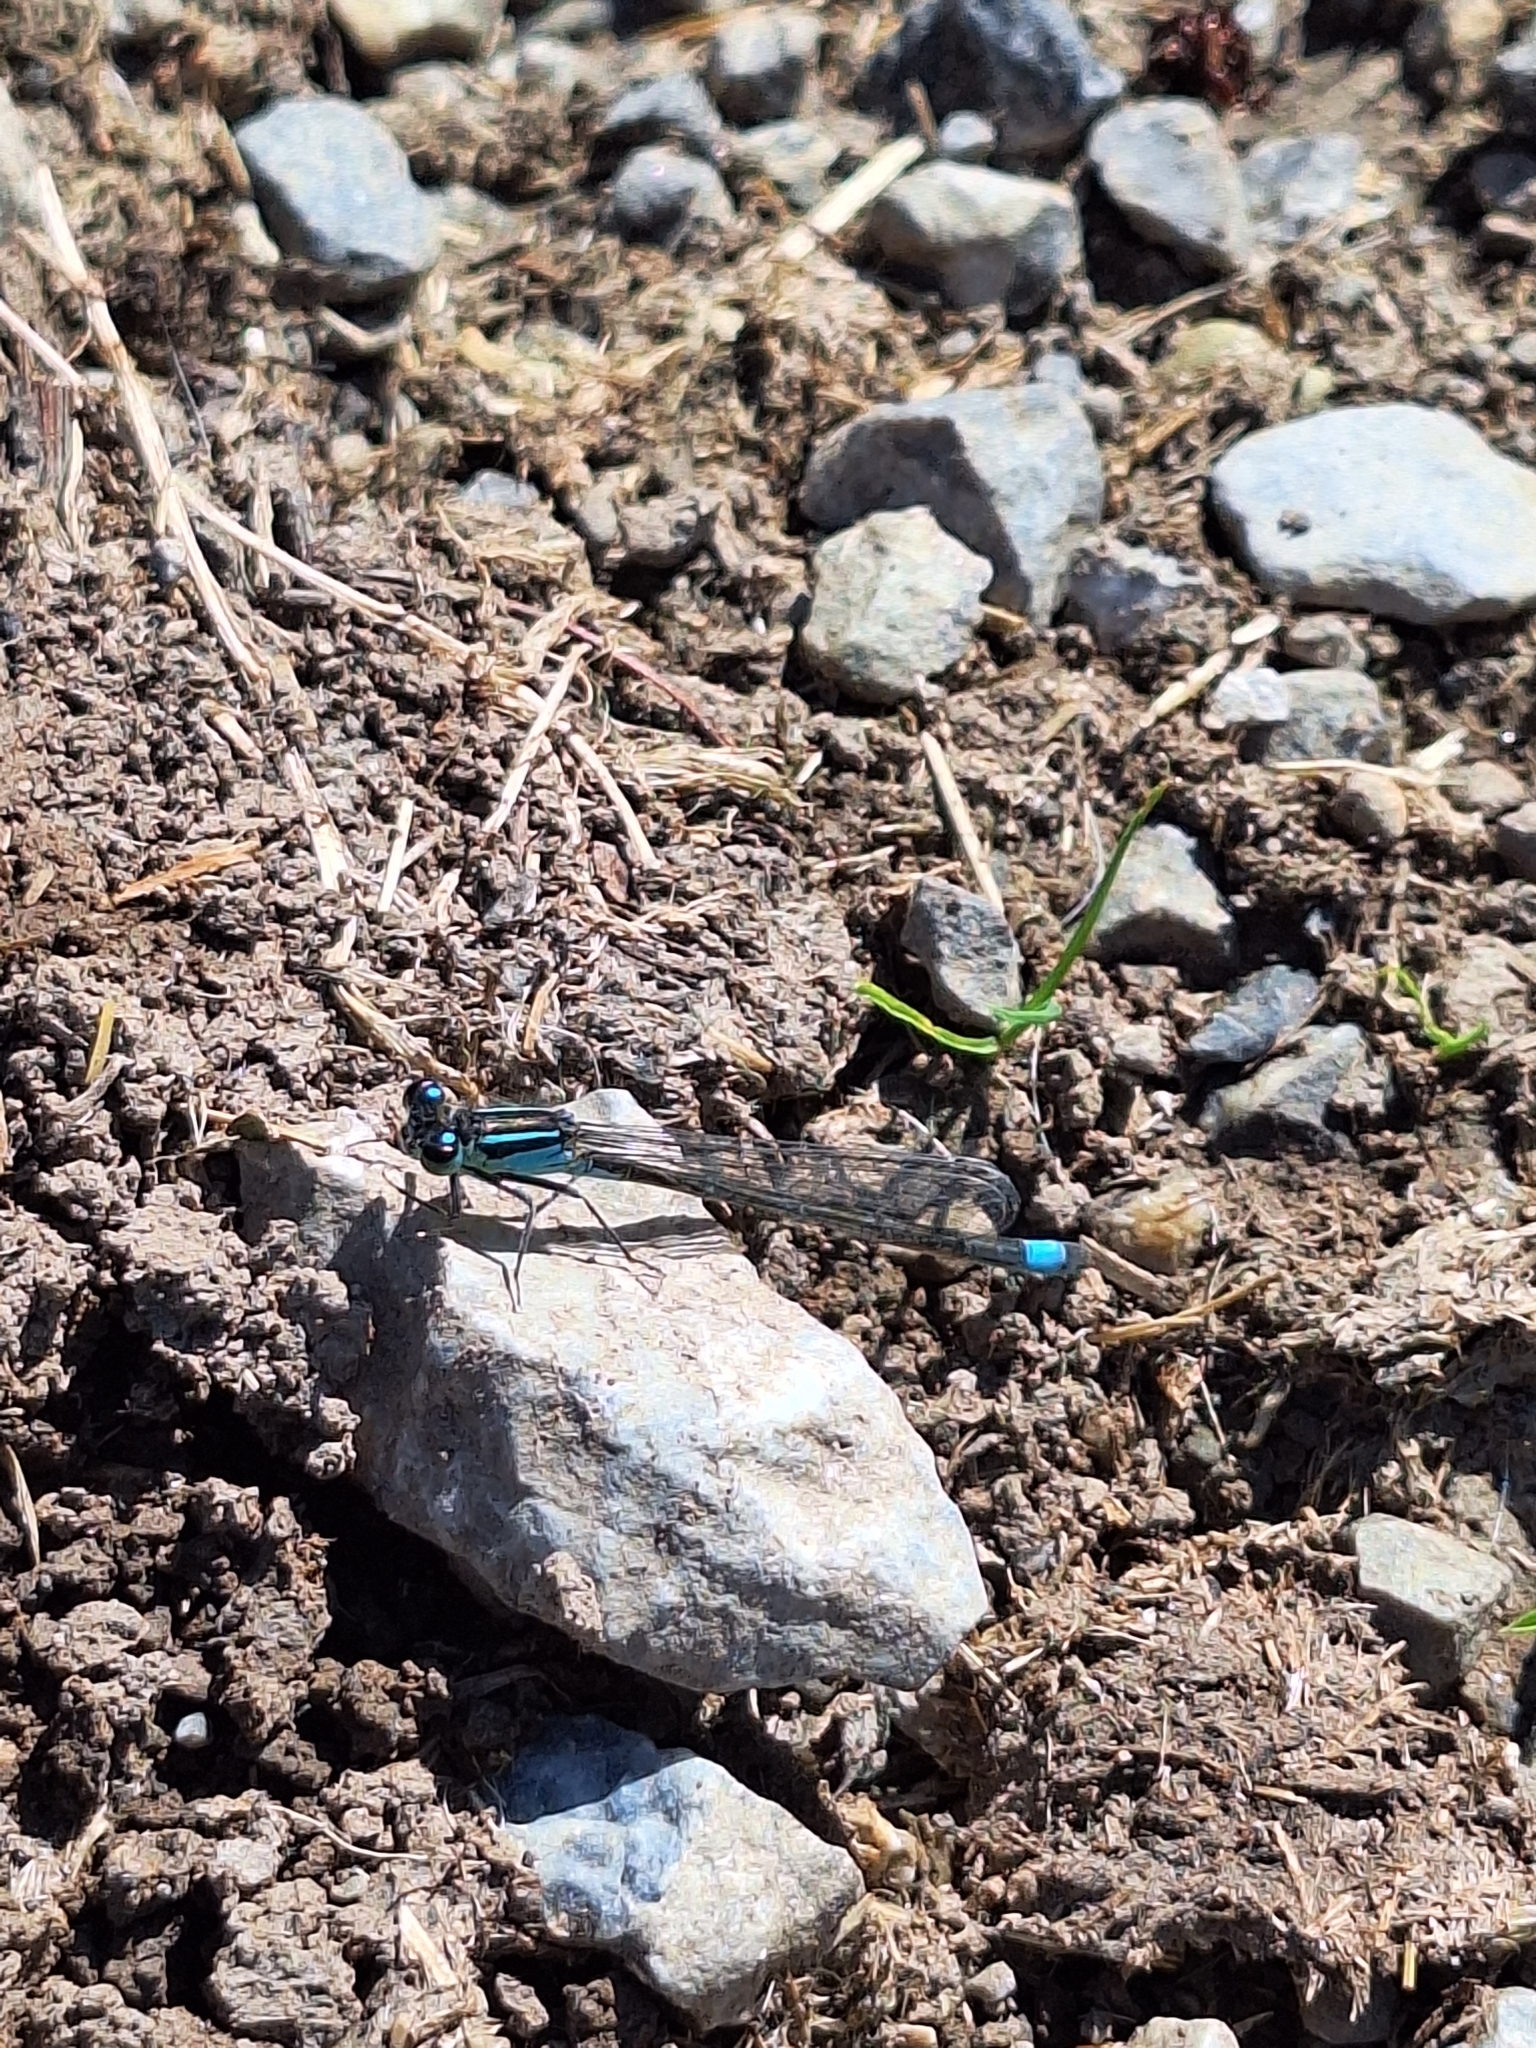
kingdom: Animalia
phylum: Arthropoda
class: Insecta
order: Odonata
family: Coenagrionidae
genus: Ischnura
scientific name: Ischnura elegans
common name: Blue-tailed damselfly
